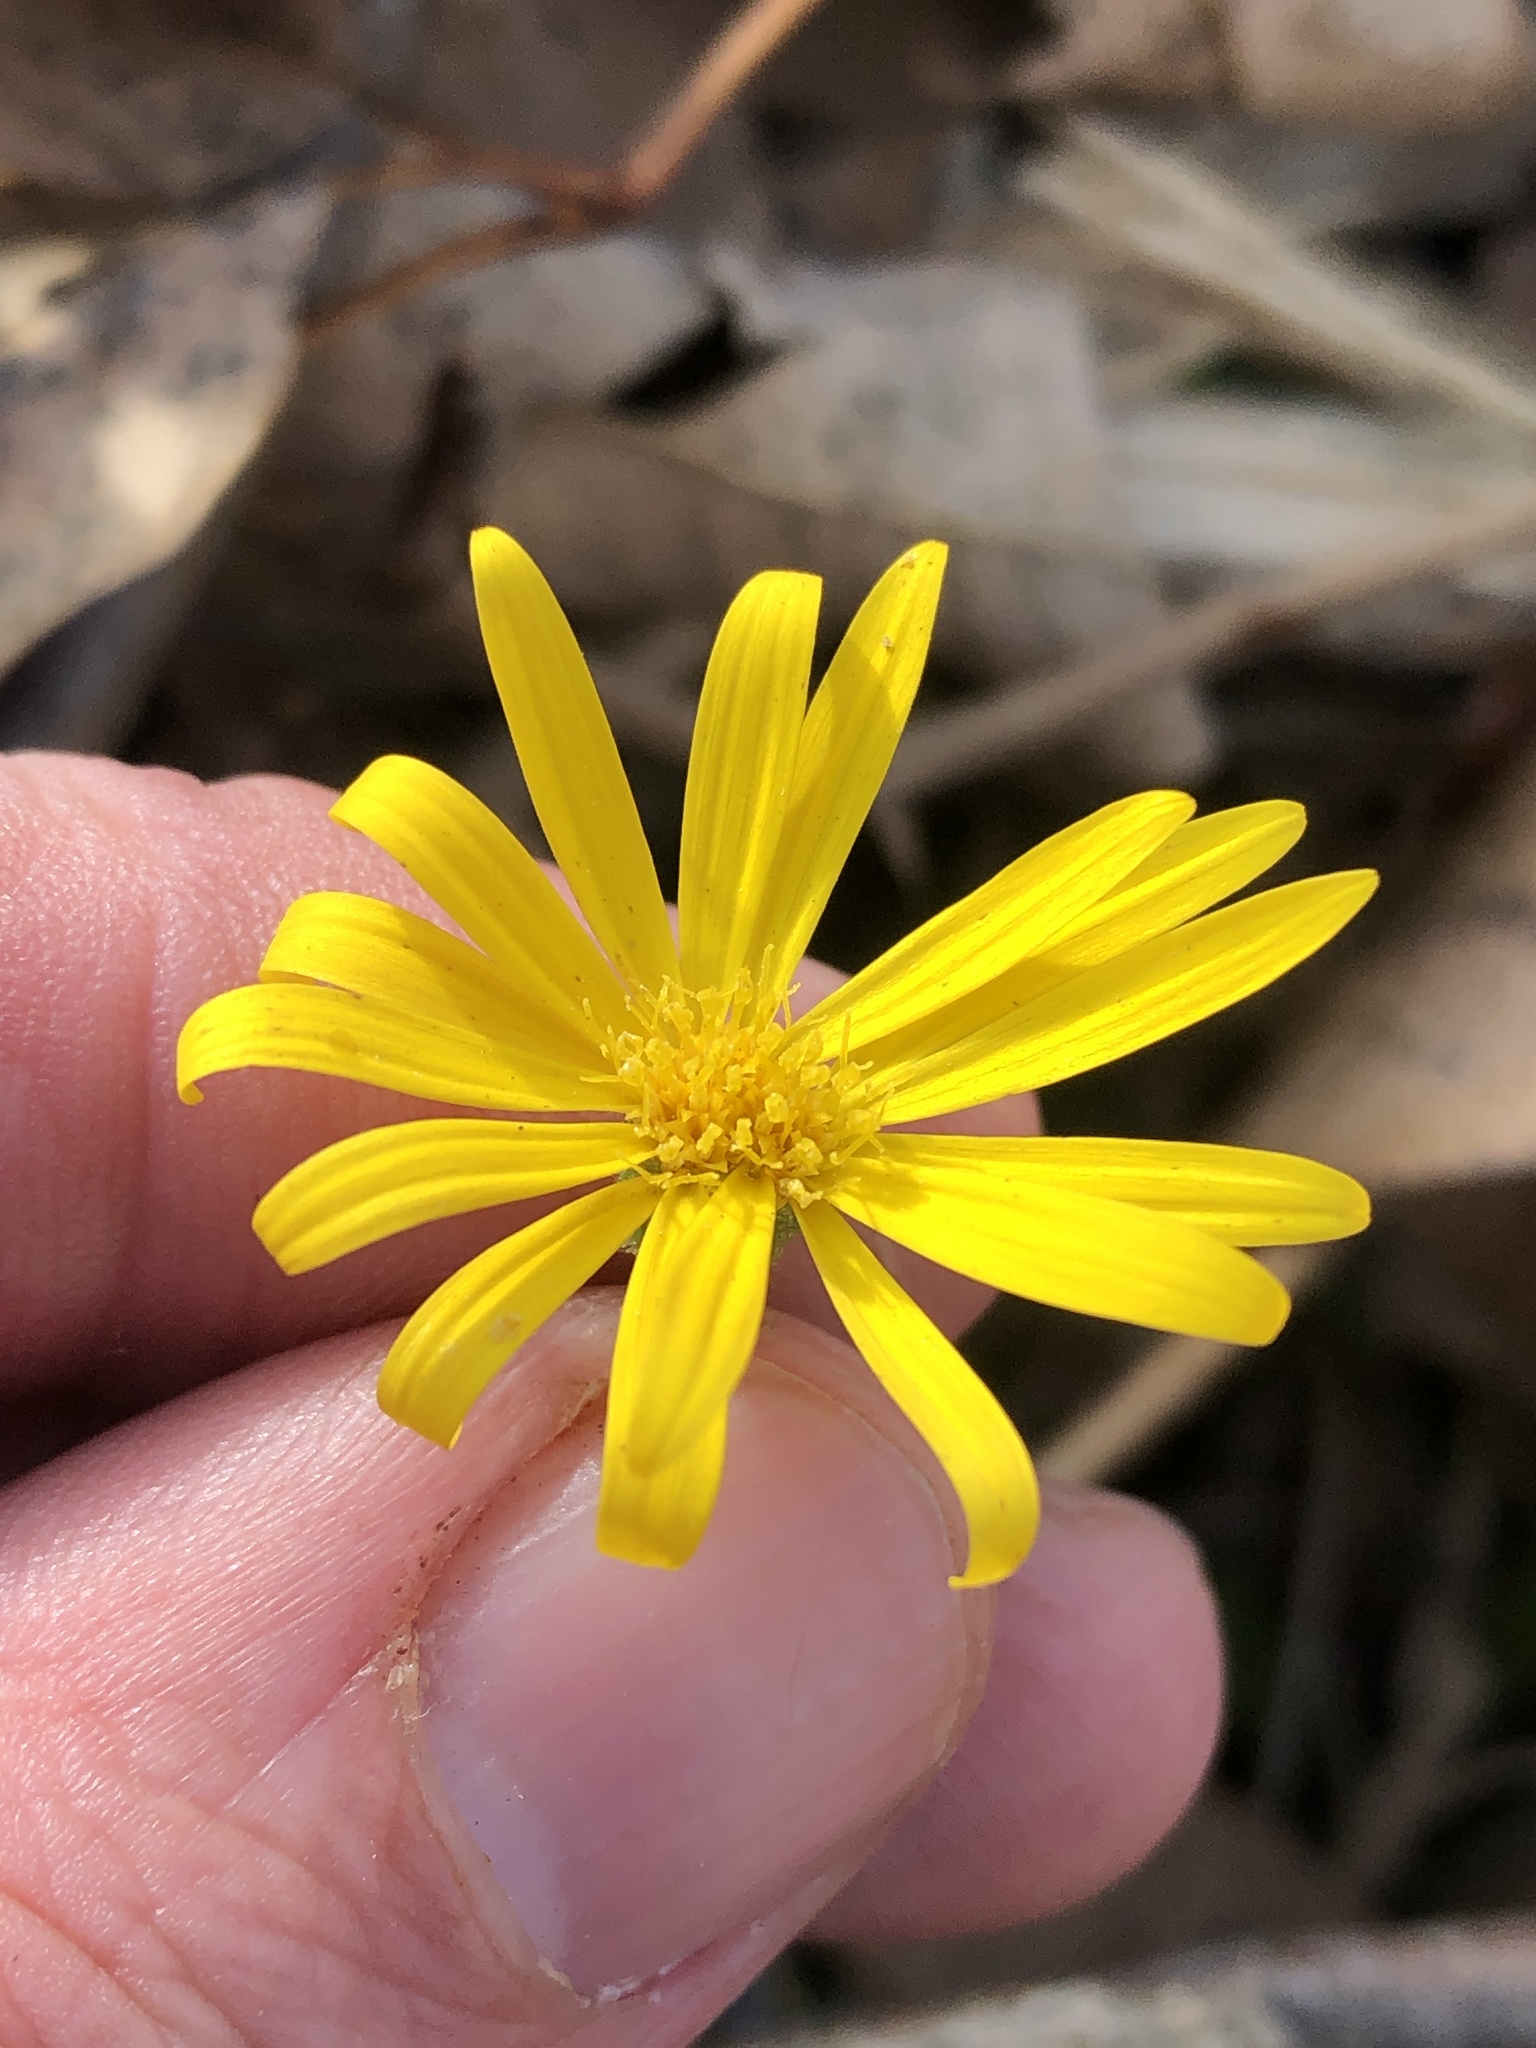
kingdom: Plantae
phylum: Tracheophyta
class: Magnoliopsida
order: Asterales
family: Asteraceae
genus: Heterotheca
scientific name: Heterotheca subaxillaris
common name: Camphorweed
